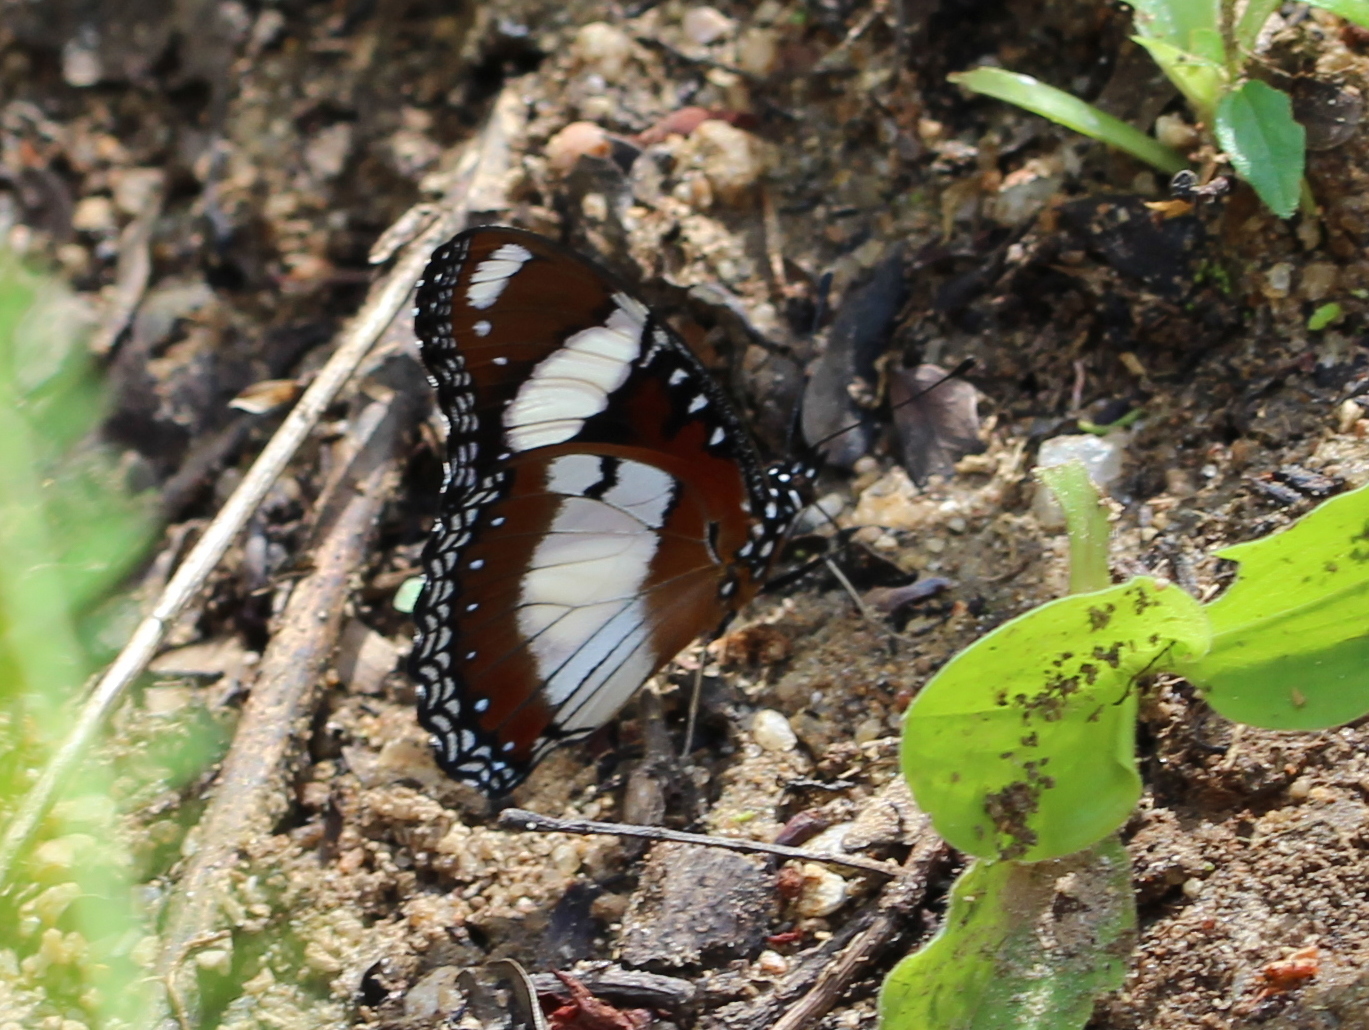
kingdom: Animalia
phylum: Arthropoda
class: Insecta
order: Lepidoptera
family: Nymphalidae
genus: Hypolimnas
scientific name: Hypolimnas misippus
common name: False plain tiger
